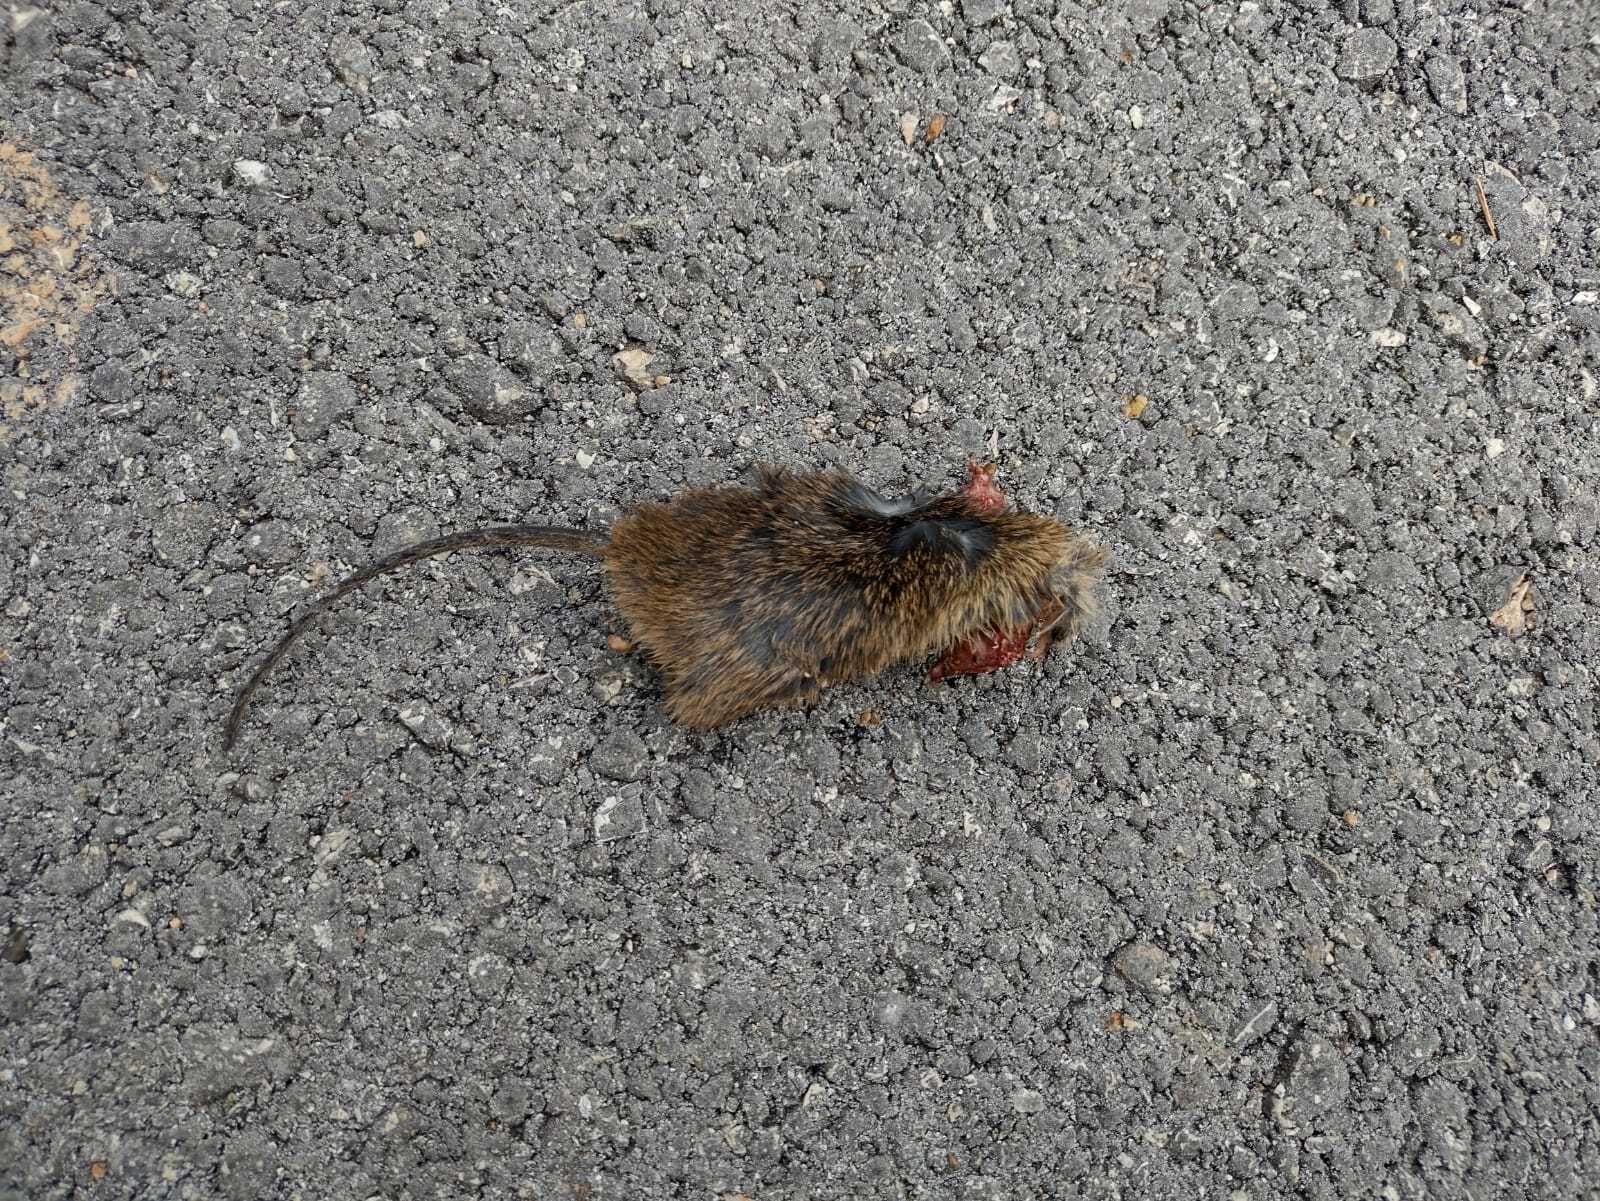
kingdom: Animalia
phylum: Chordata
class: Mammalia
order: Rodentia
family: Cricetidae
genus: Sigmodon
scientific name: Sigmodon toltecus
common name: Toltec cotton rat
